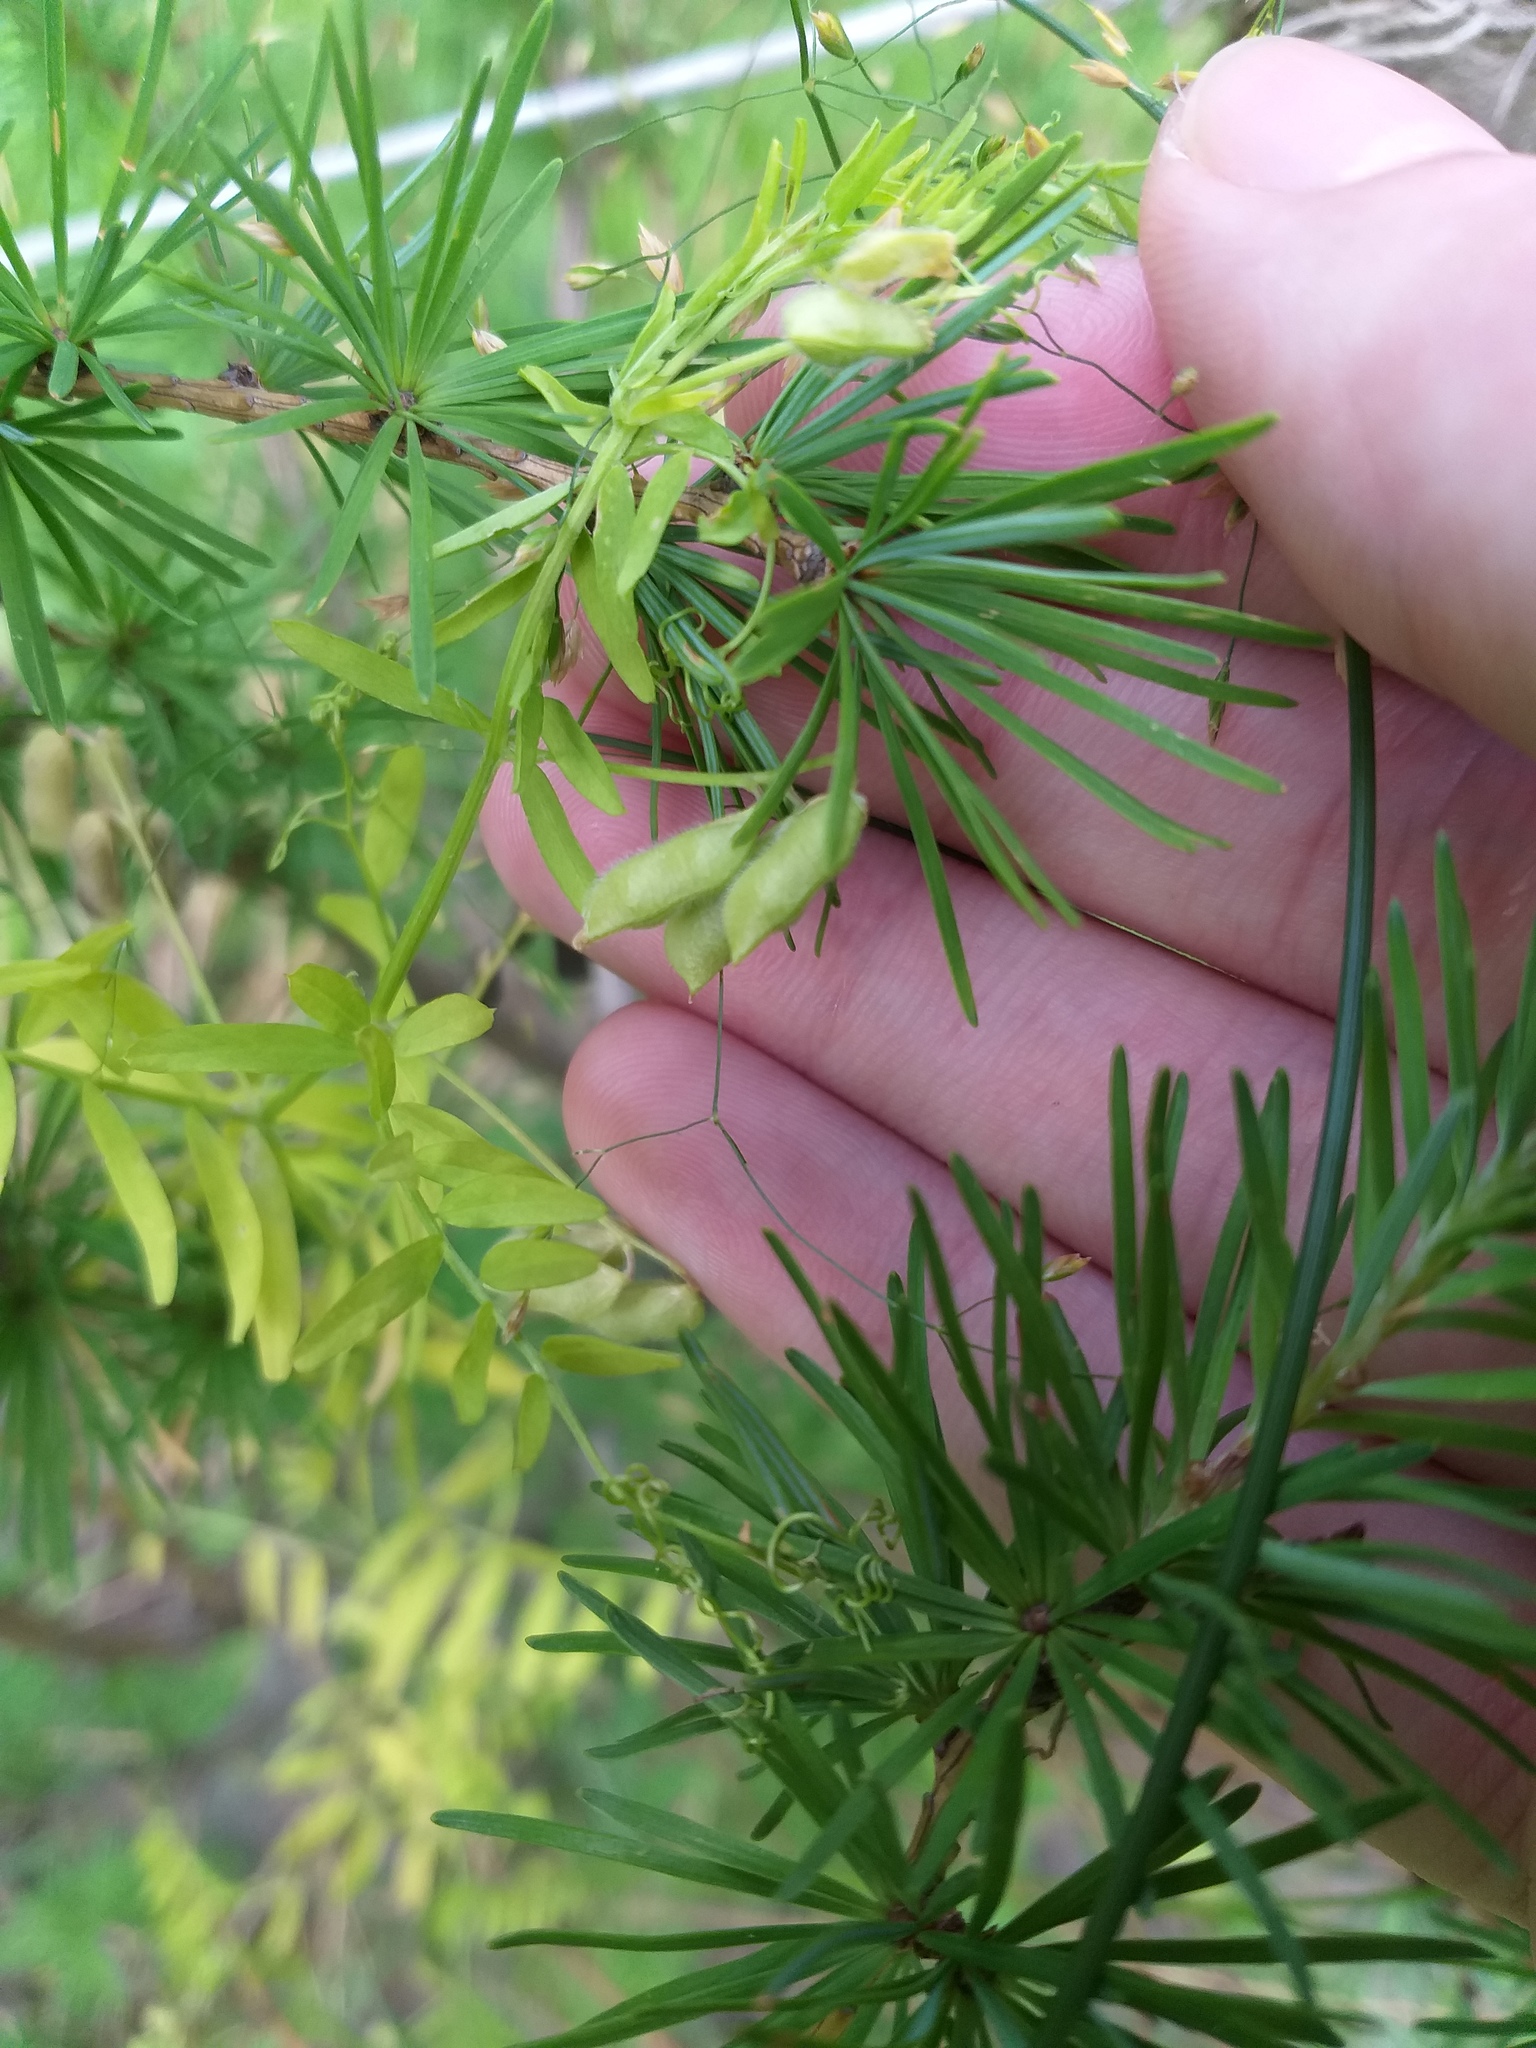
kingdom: Plantae
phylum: Tracheophyta
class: Magnoliopsida
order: Fabales
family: Fabaceae
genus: Vicia
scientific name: Vicia hirsuta
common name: Tiny vetch
